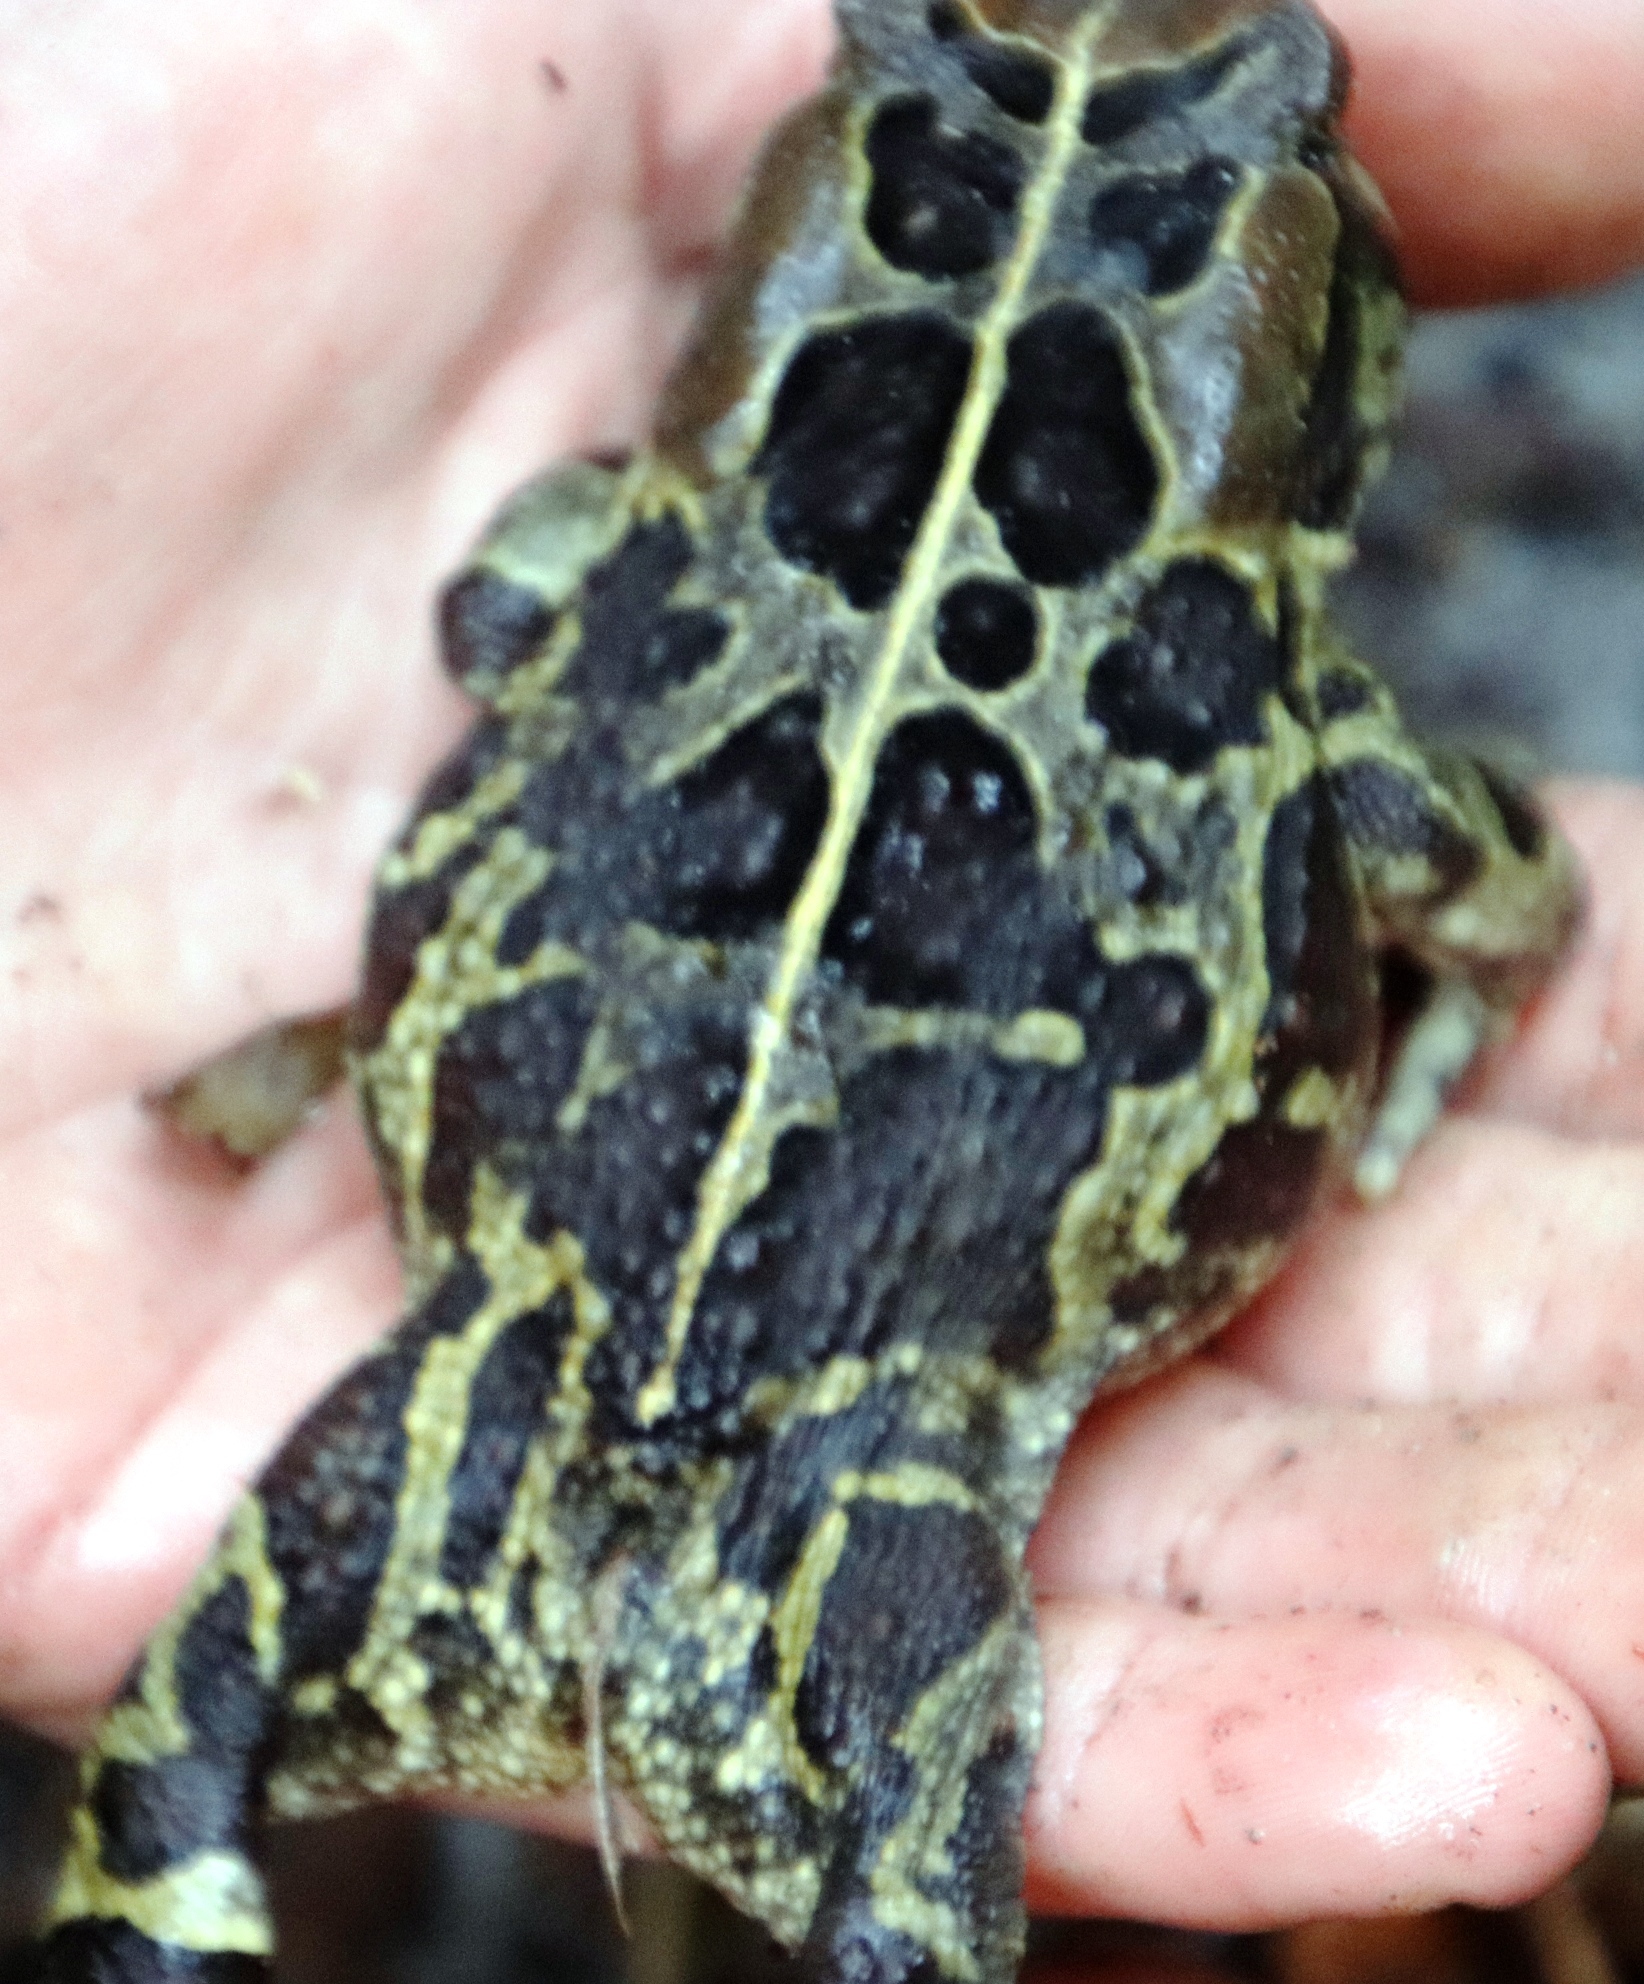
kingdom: Animalia
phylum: Chordata
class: Amphibia
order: Anura
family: Bufonidae
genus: Sclerophrys
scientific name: Sclerophrys pantherina
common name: Panther toad
